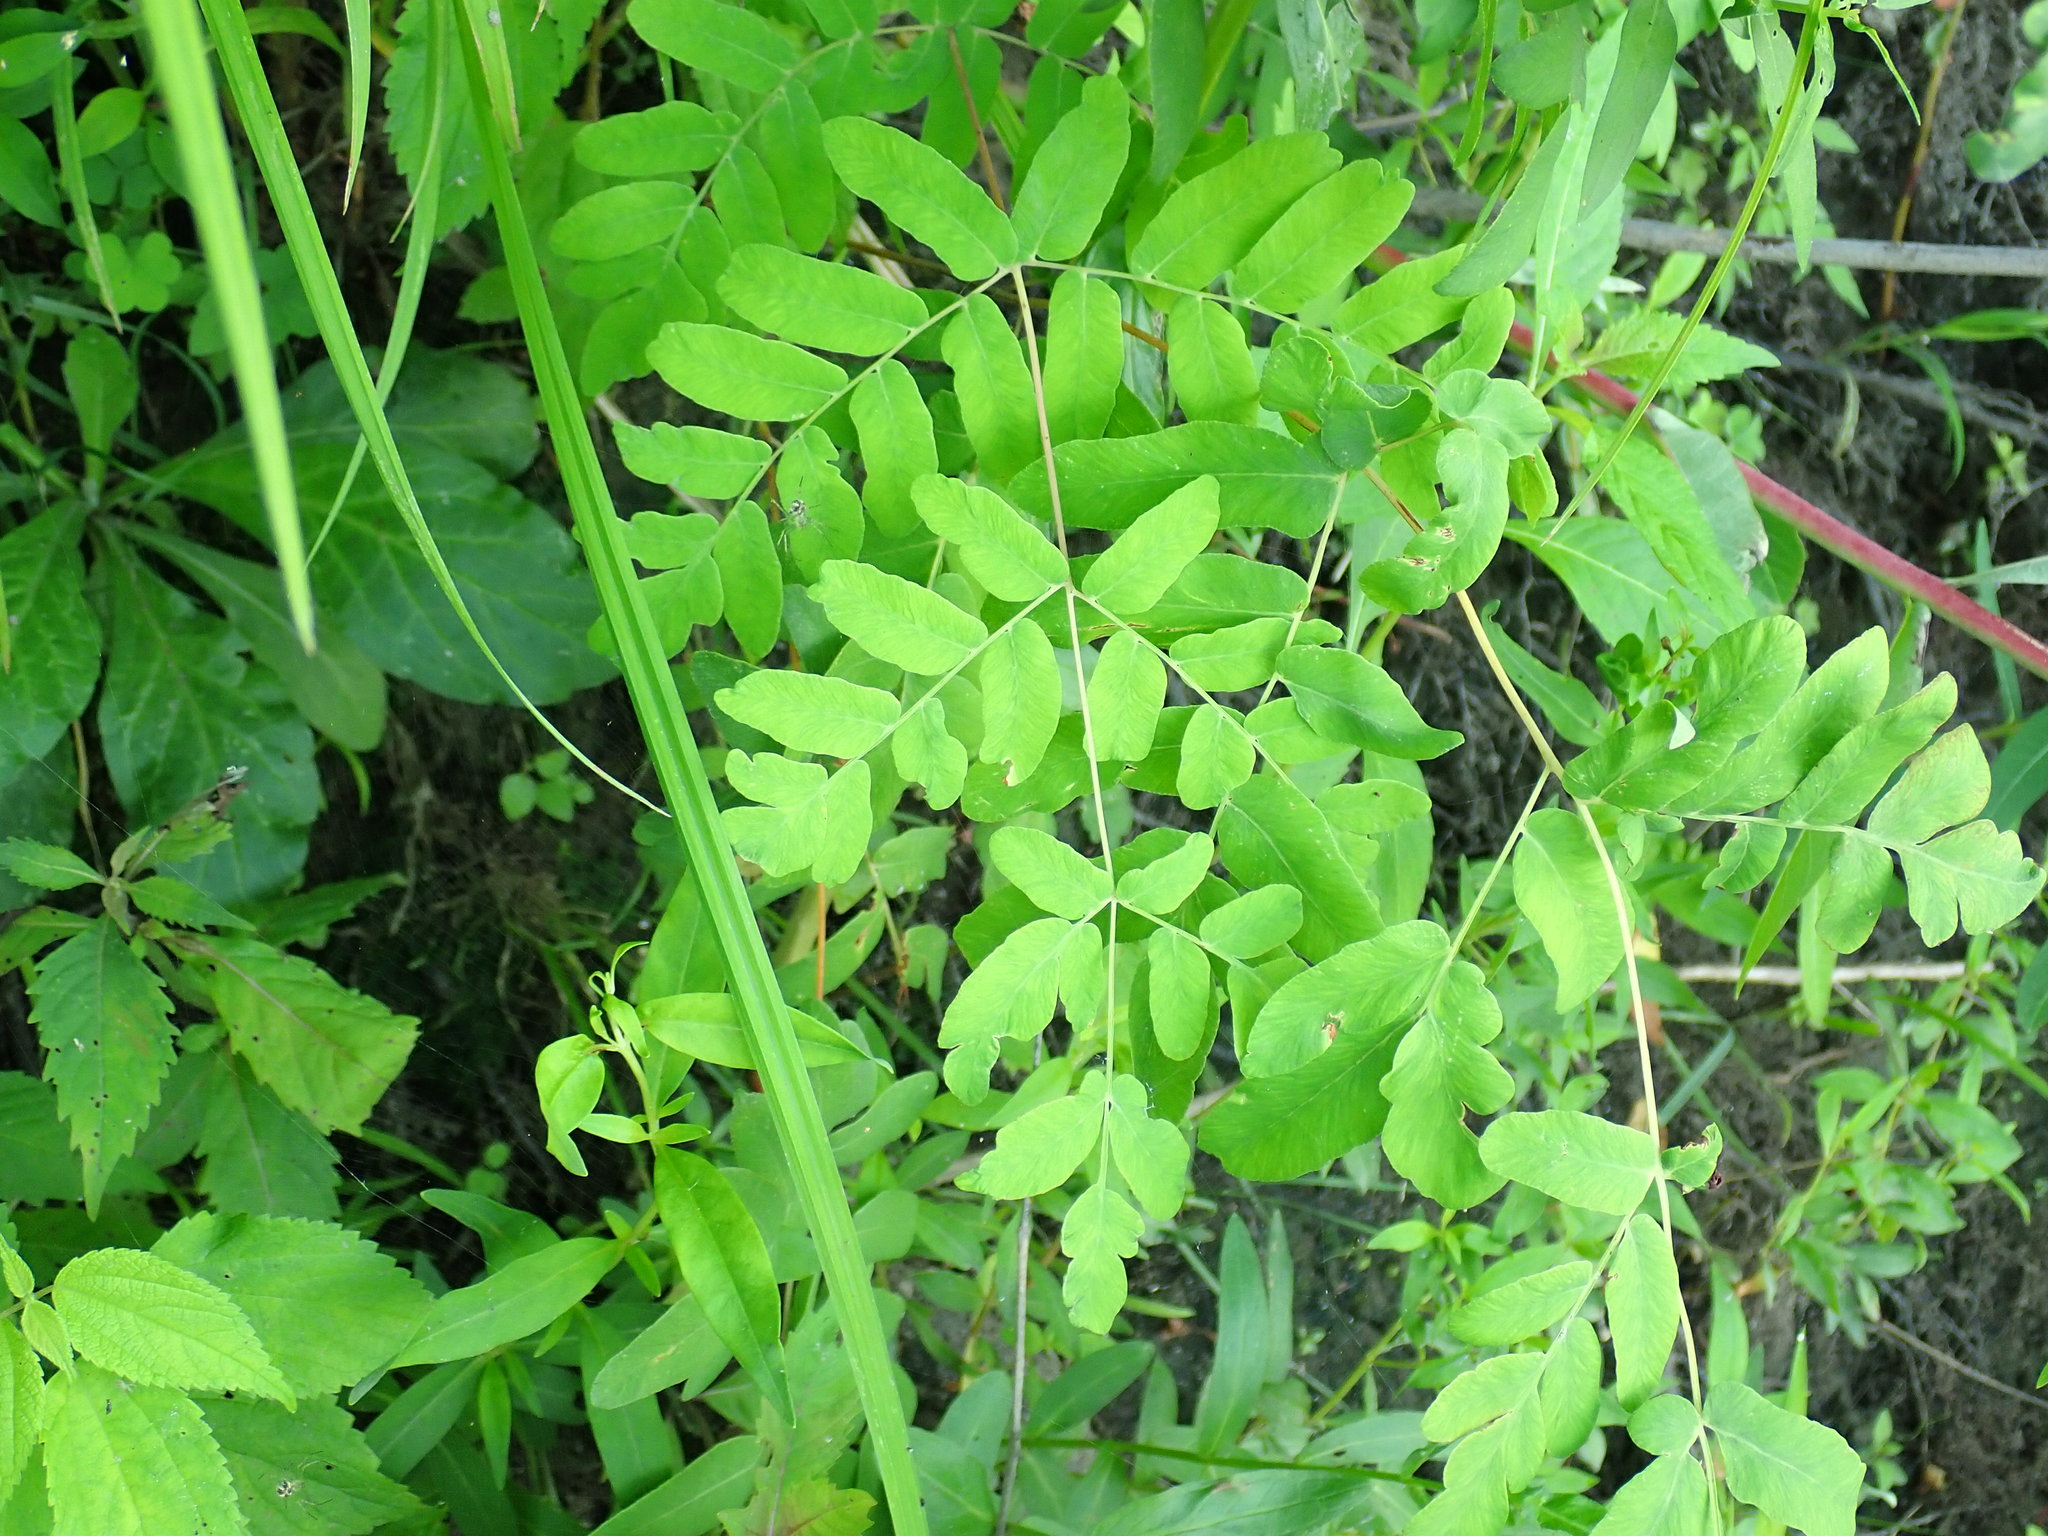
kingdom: Plantae
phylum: Tracheophyta
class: Polypodiopsida
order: Osmundales
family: Osmundaceae
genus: Osmunda
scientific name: Osmunda spectabilis
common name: American royal fern
